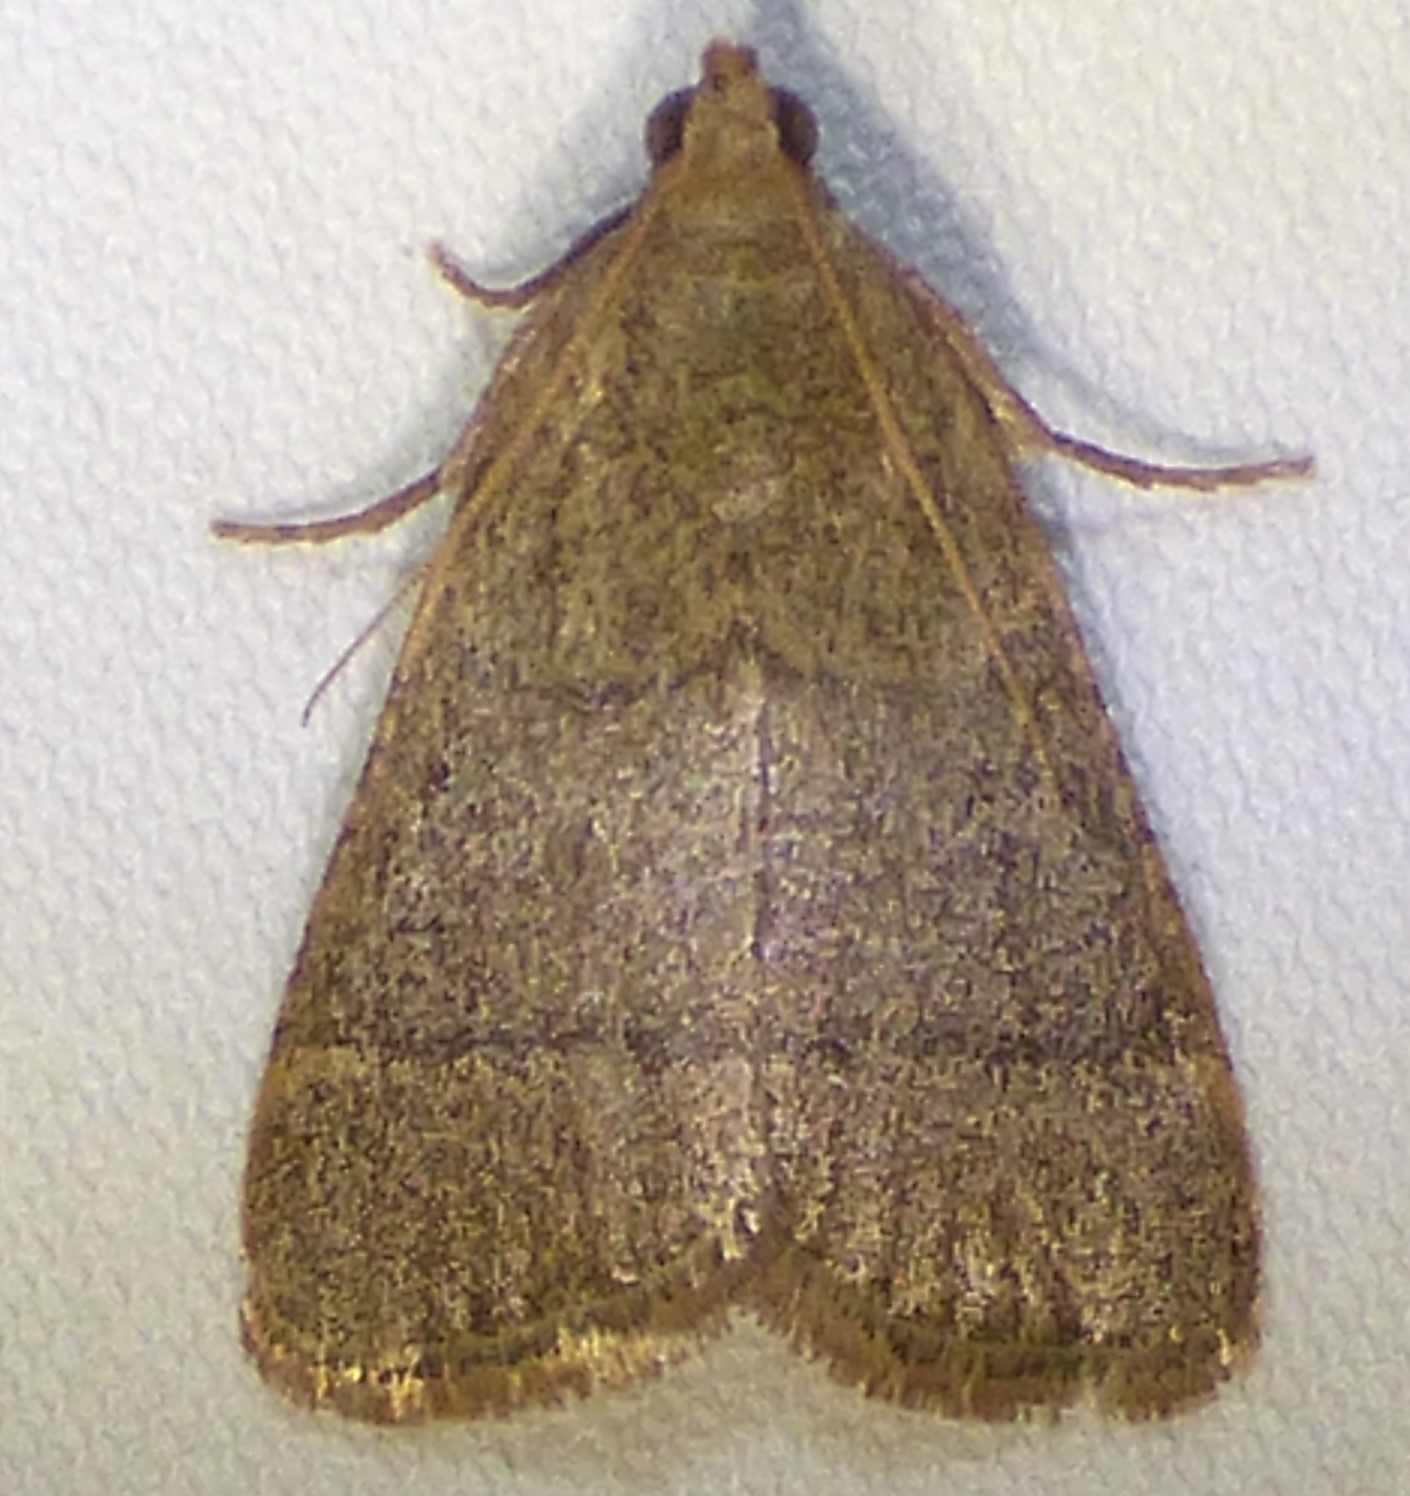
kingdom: Animalia
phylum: Arthropoda
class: Insecta
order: Lepidoptera
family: Pyralidae
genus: Hypsopygia
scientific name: Hypsopygia nostralis
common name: Southern hayworm moth
